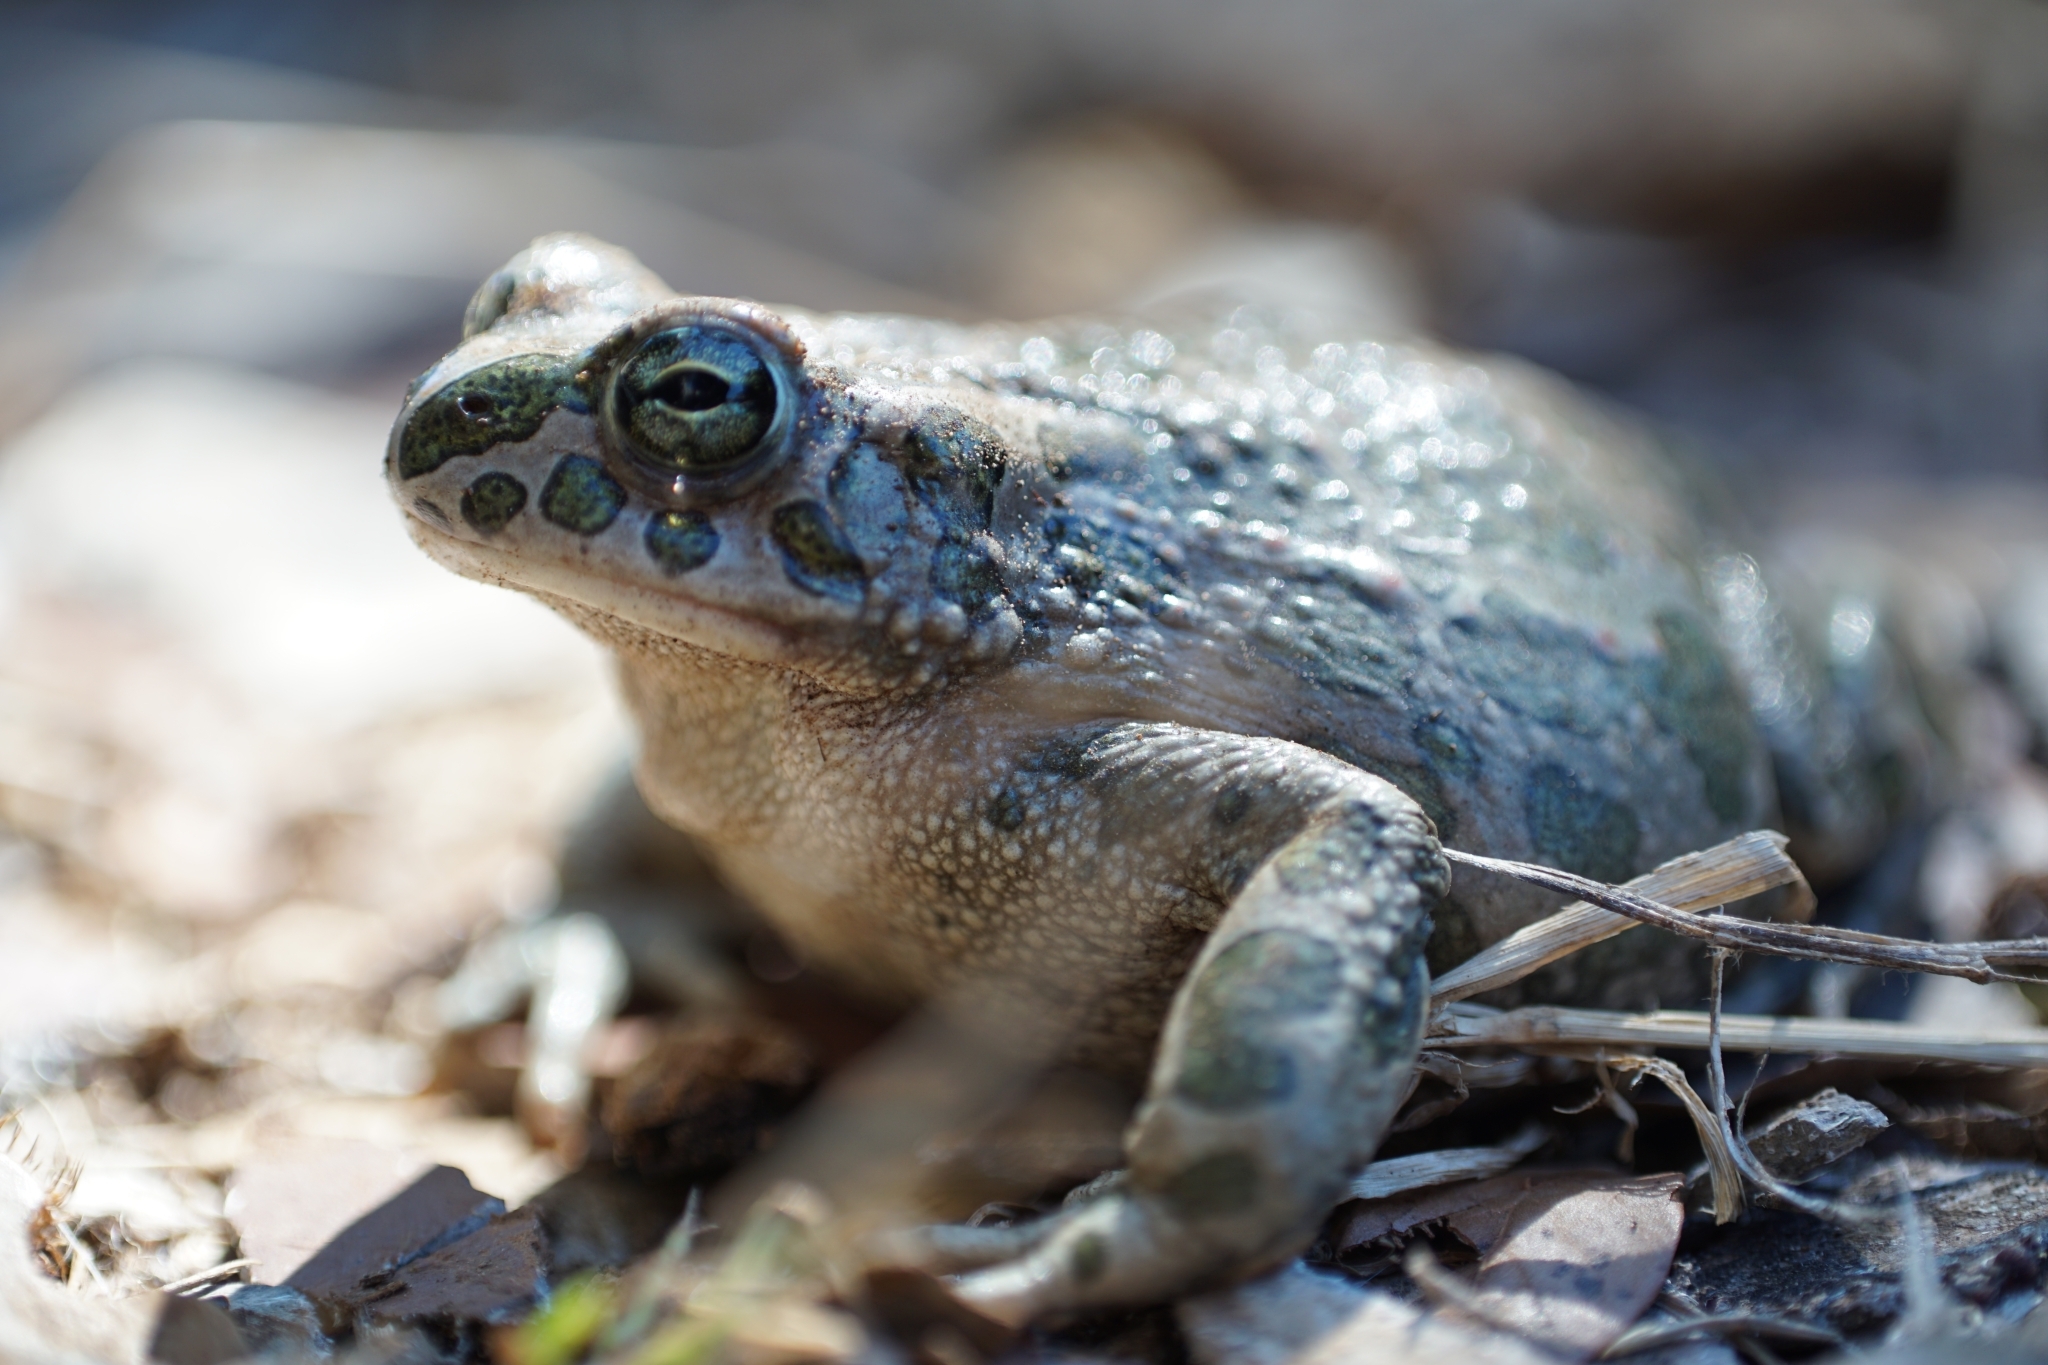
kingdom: Animalia
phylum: Chordata
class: Amphibia
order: Anura
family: Bufonidae
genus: Bufotes
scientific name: Bufotes viridis
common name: European green toad
